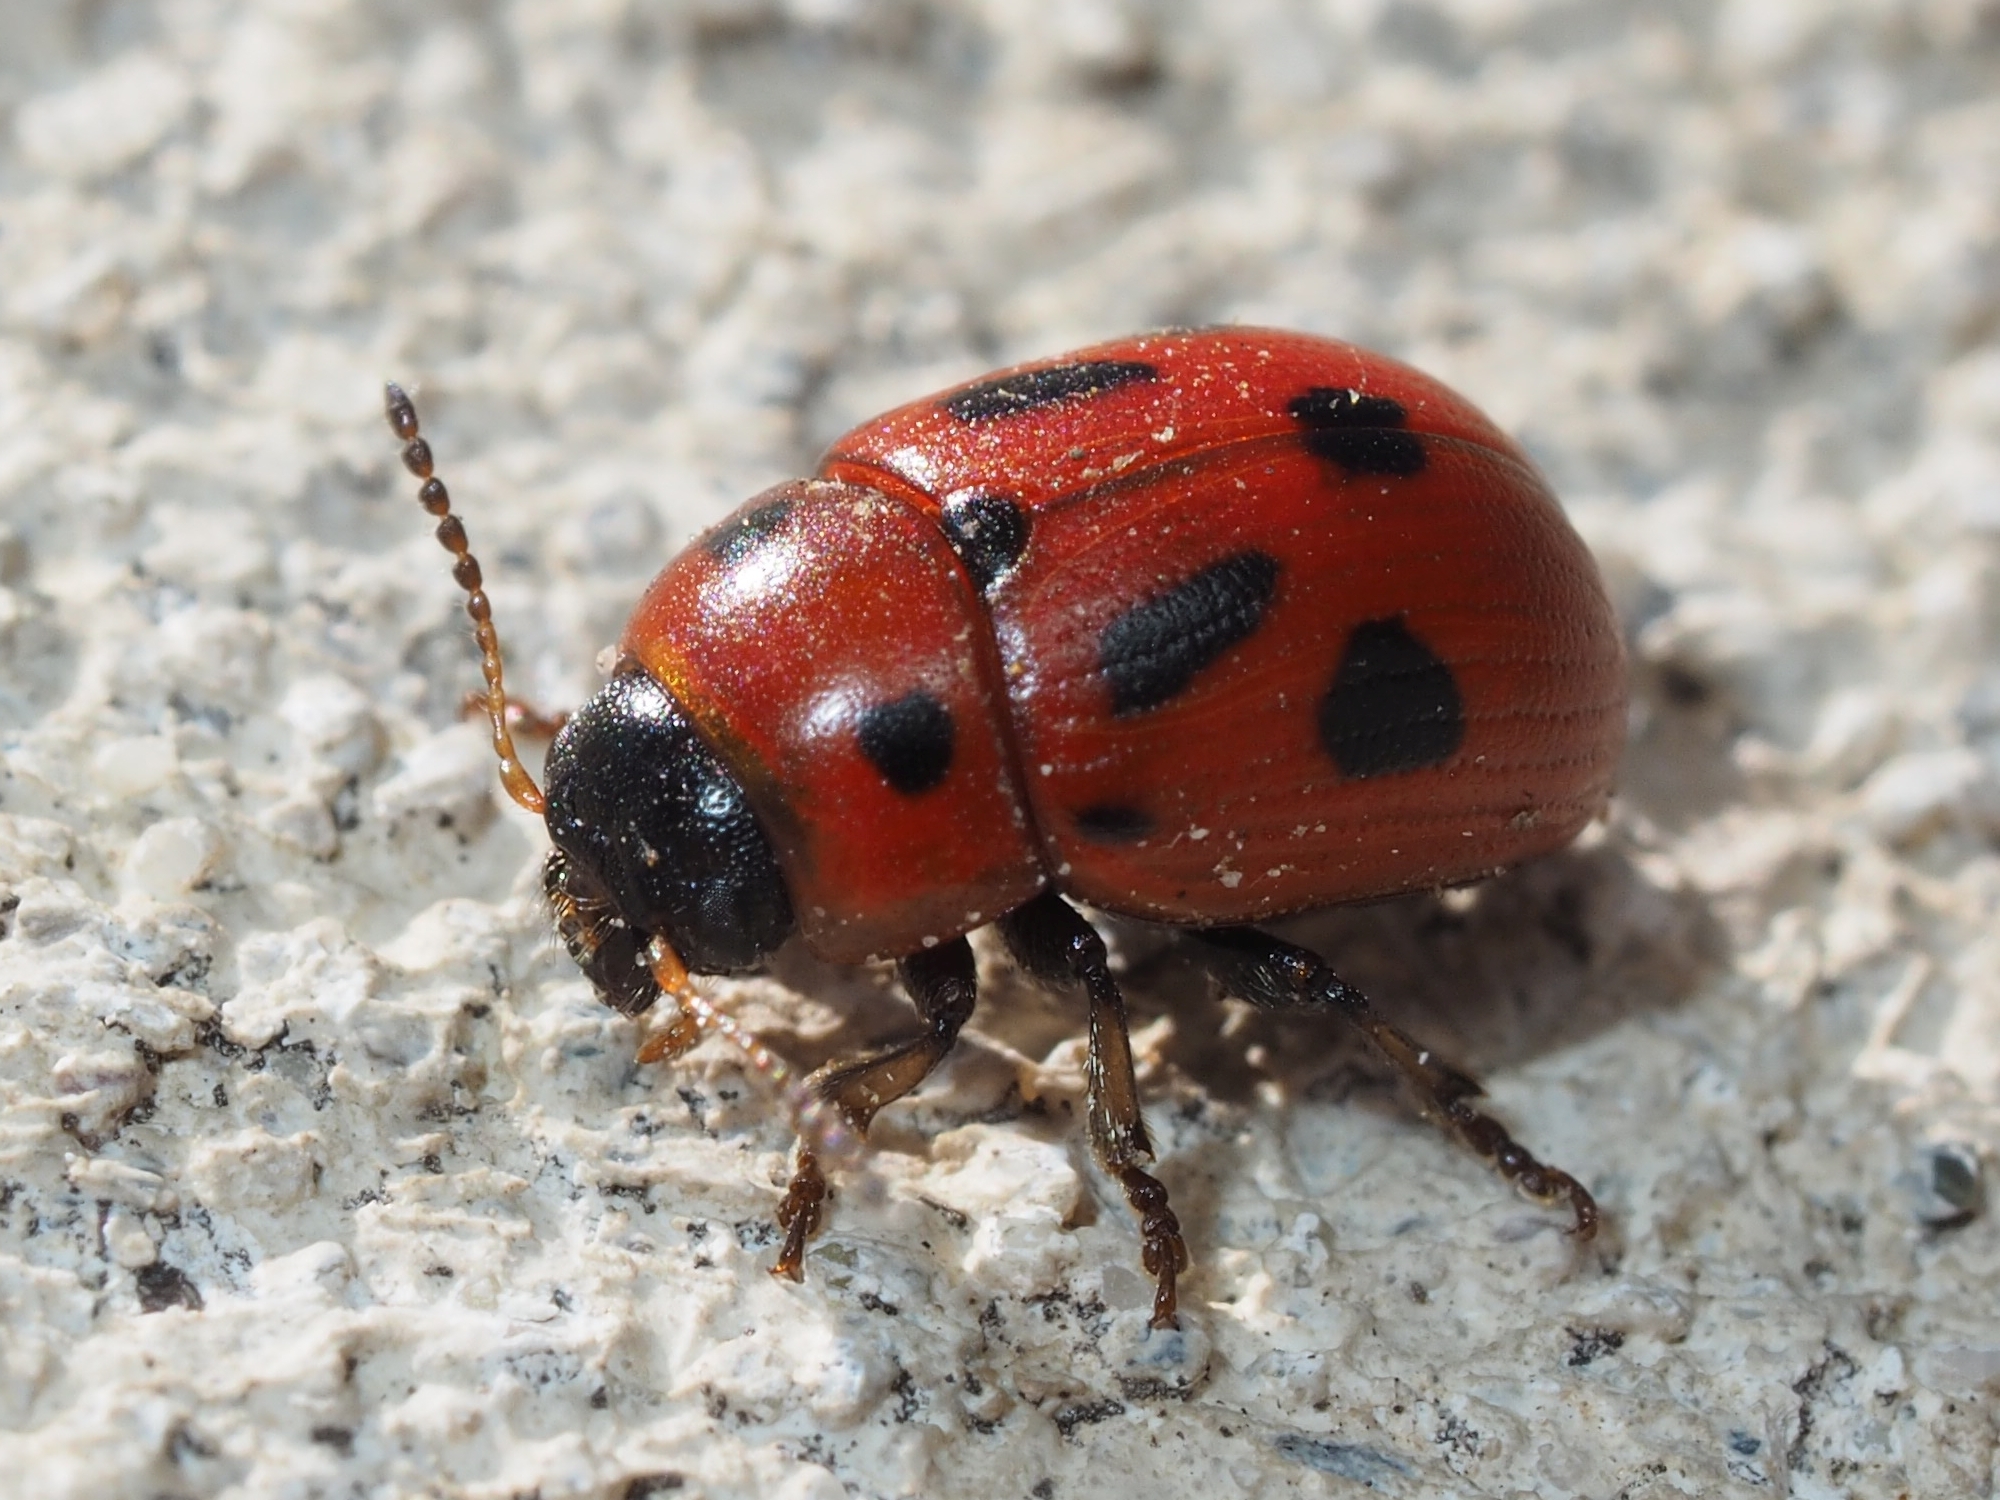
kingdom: Animalia
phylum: Arthropoda
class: Insecta
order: Coleoptera
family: Chrysomelidae
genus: Gonioctena
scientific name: Gonioctena fornicata
